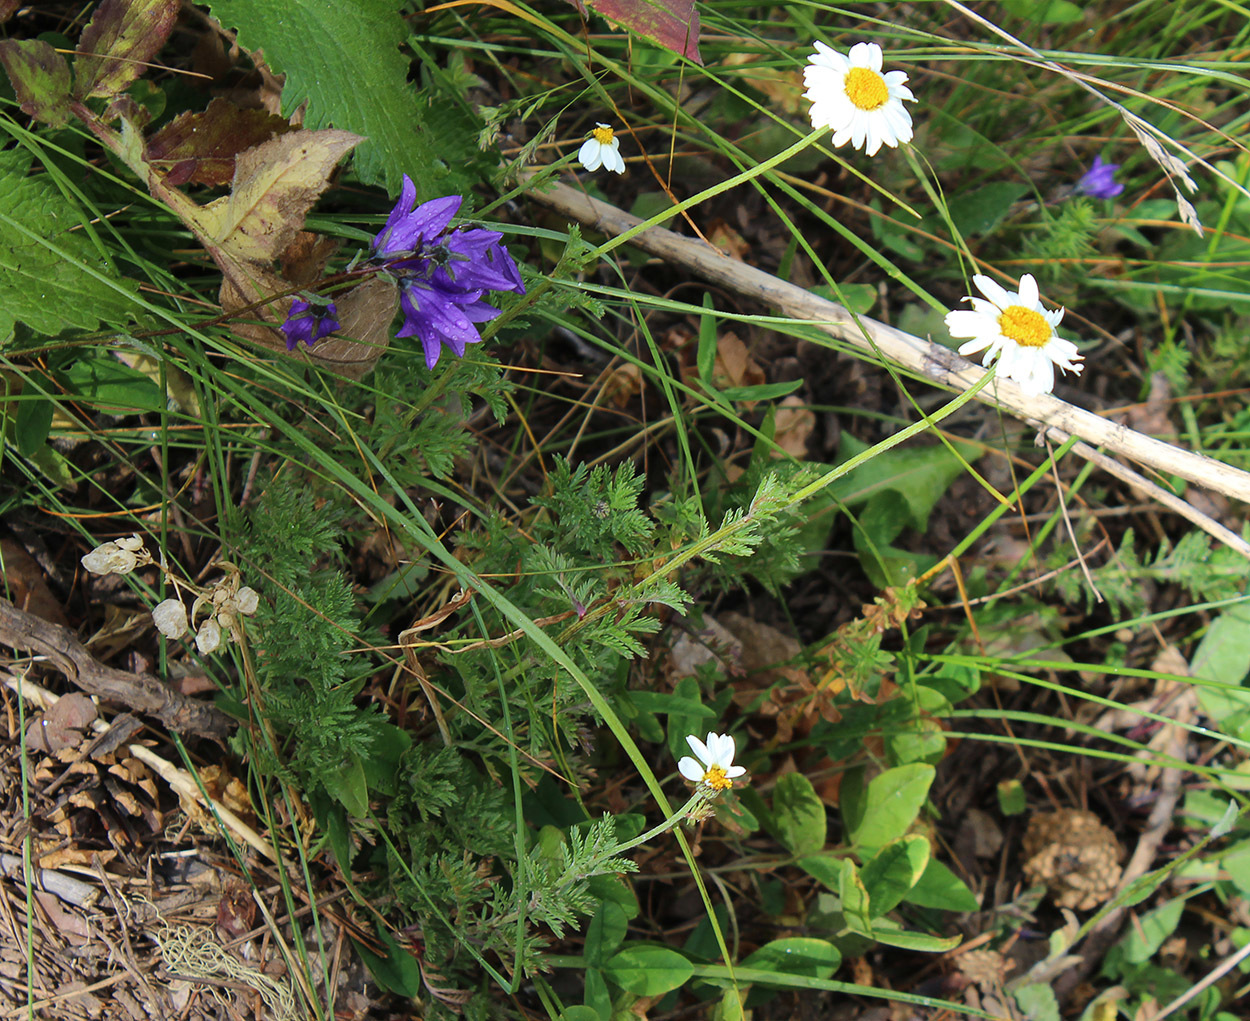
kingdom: Plantae
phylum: Tracheophyta
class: Magnoliopsida
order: Asterales
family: Asteraceae
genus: Cota
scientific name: Cota melanoloma
